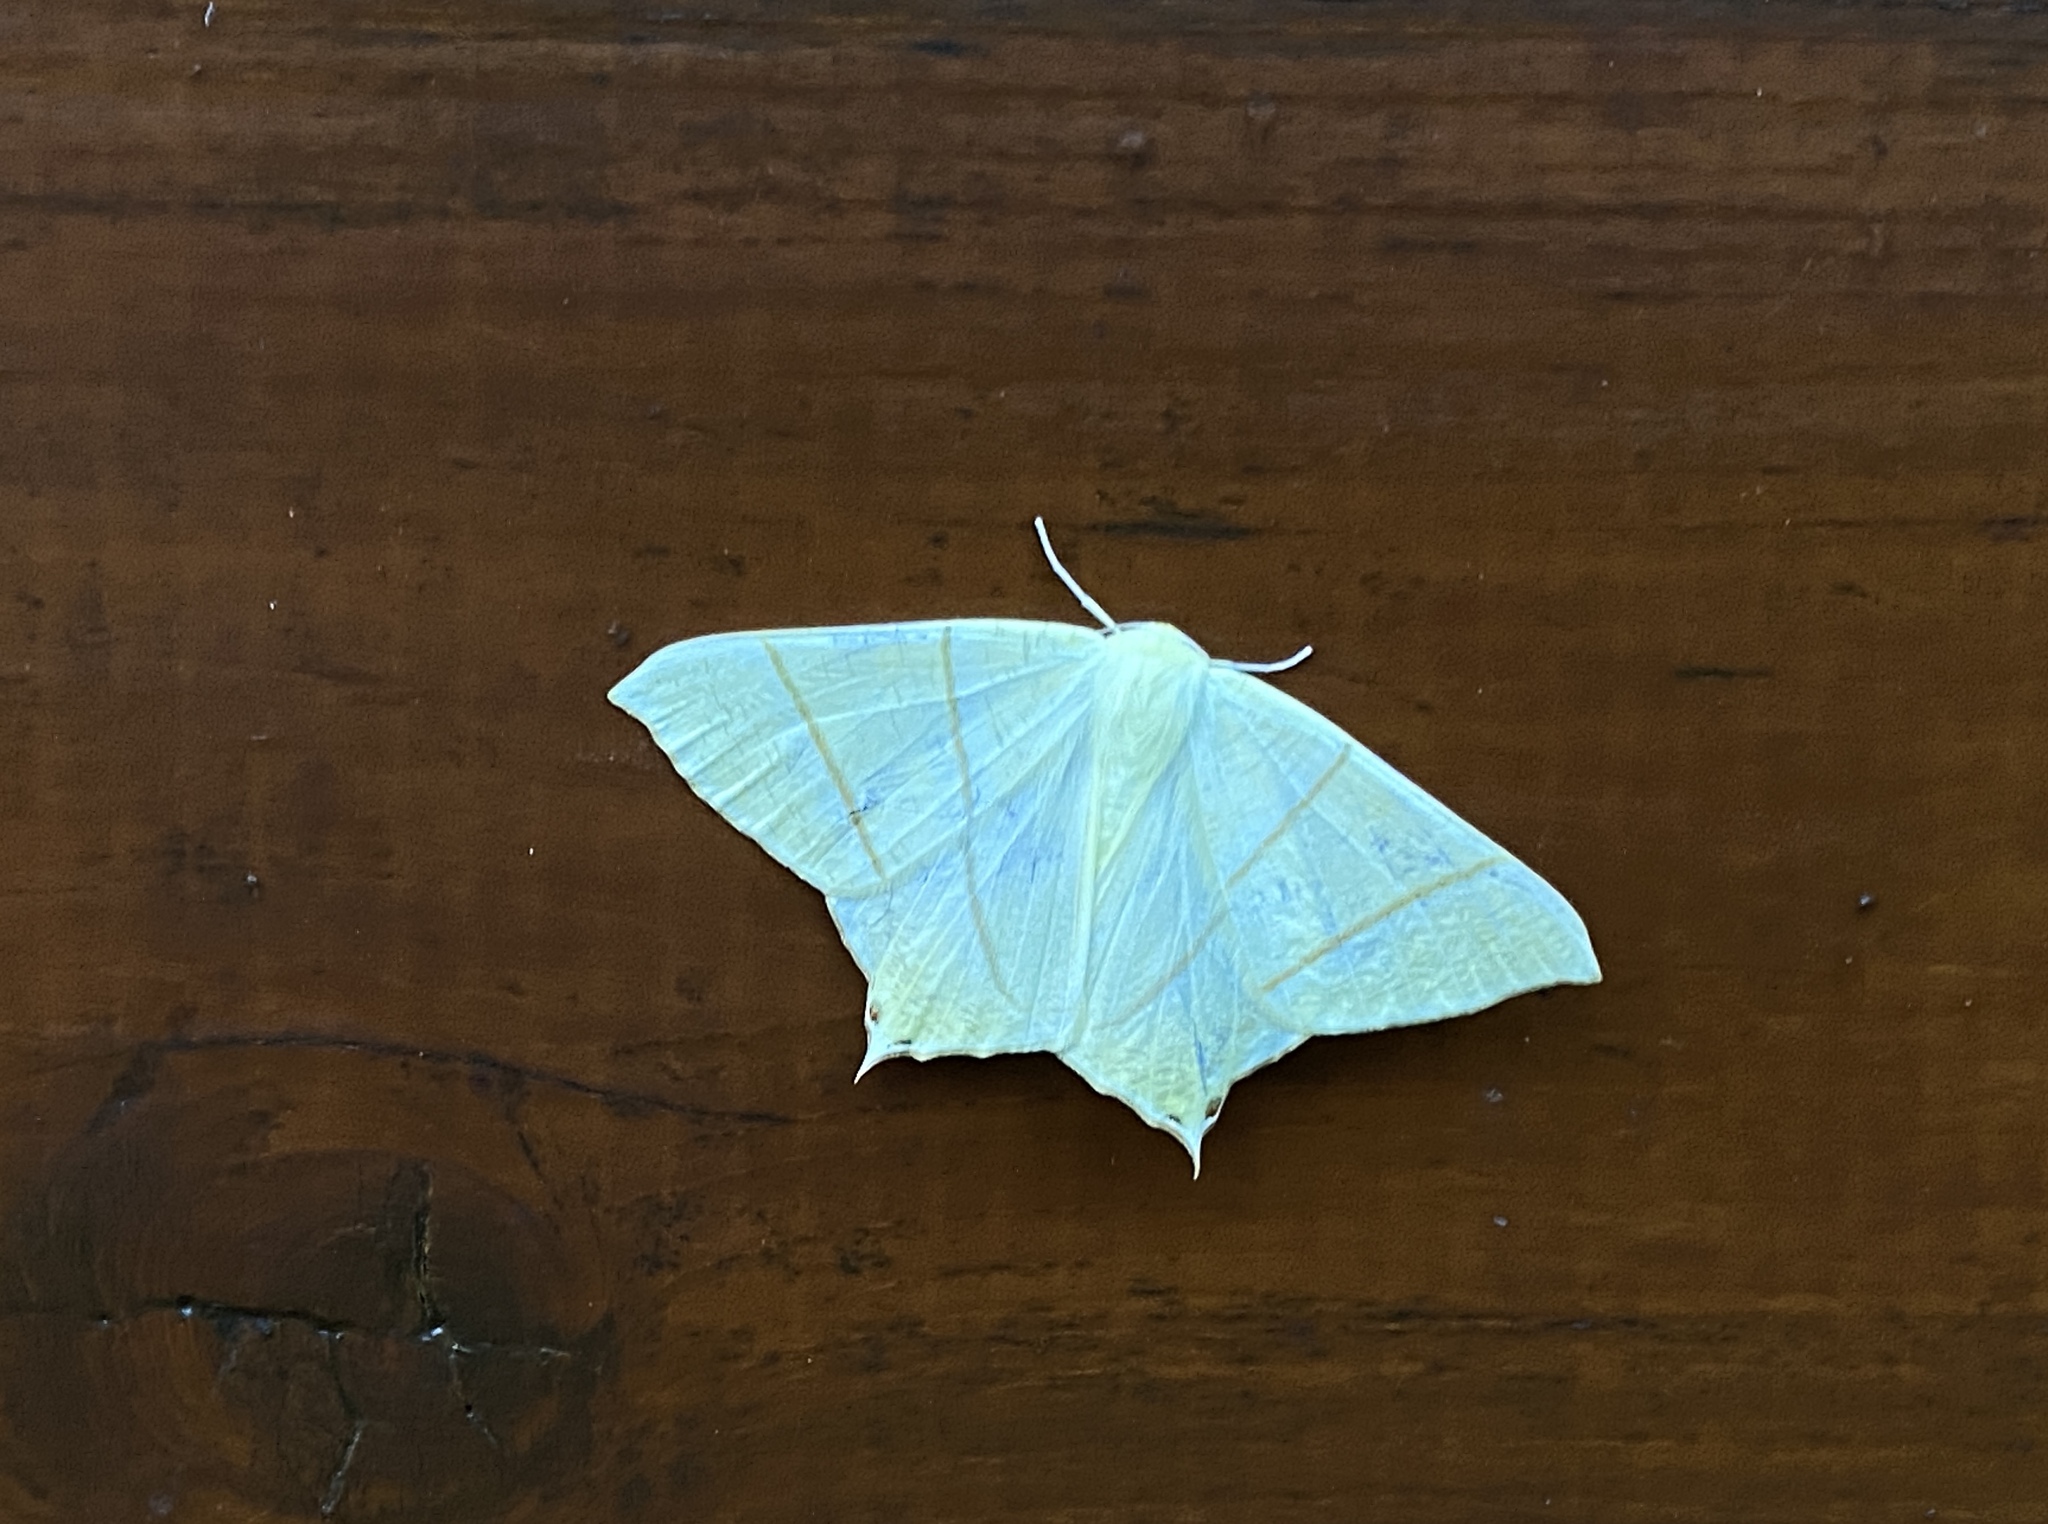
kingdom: Animalia
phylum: Arthropoda
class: Insecta
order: Lepidoptera
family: Geometridae
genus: Ourapteryx
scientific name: Ourapteryx sambucaria
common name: Swallow-tailed moth
